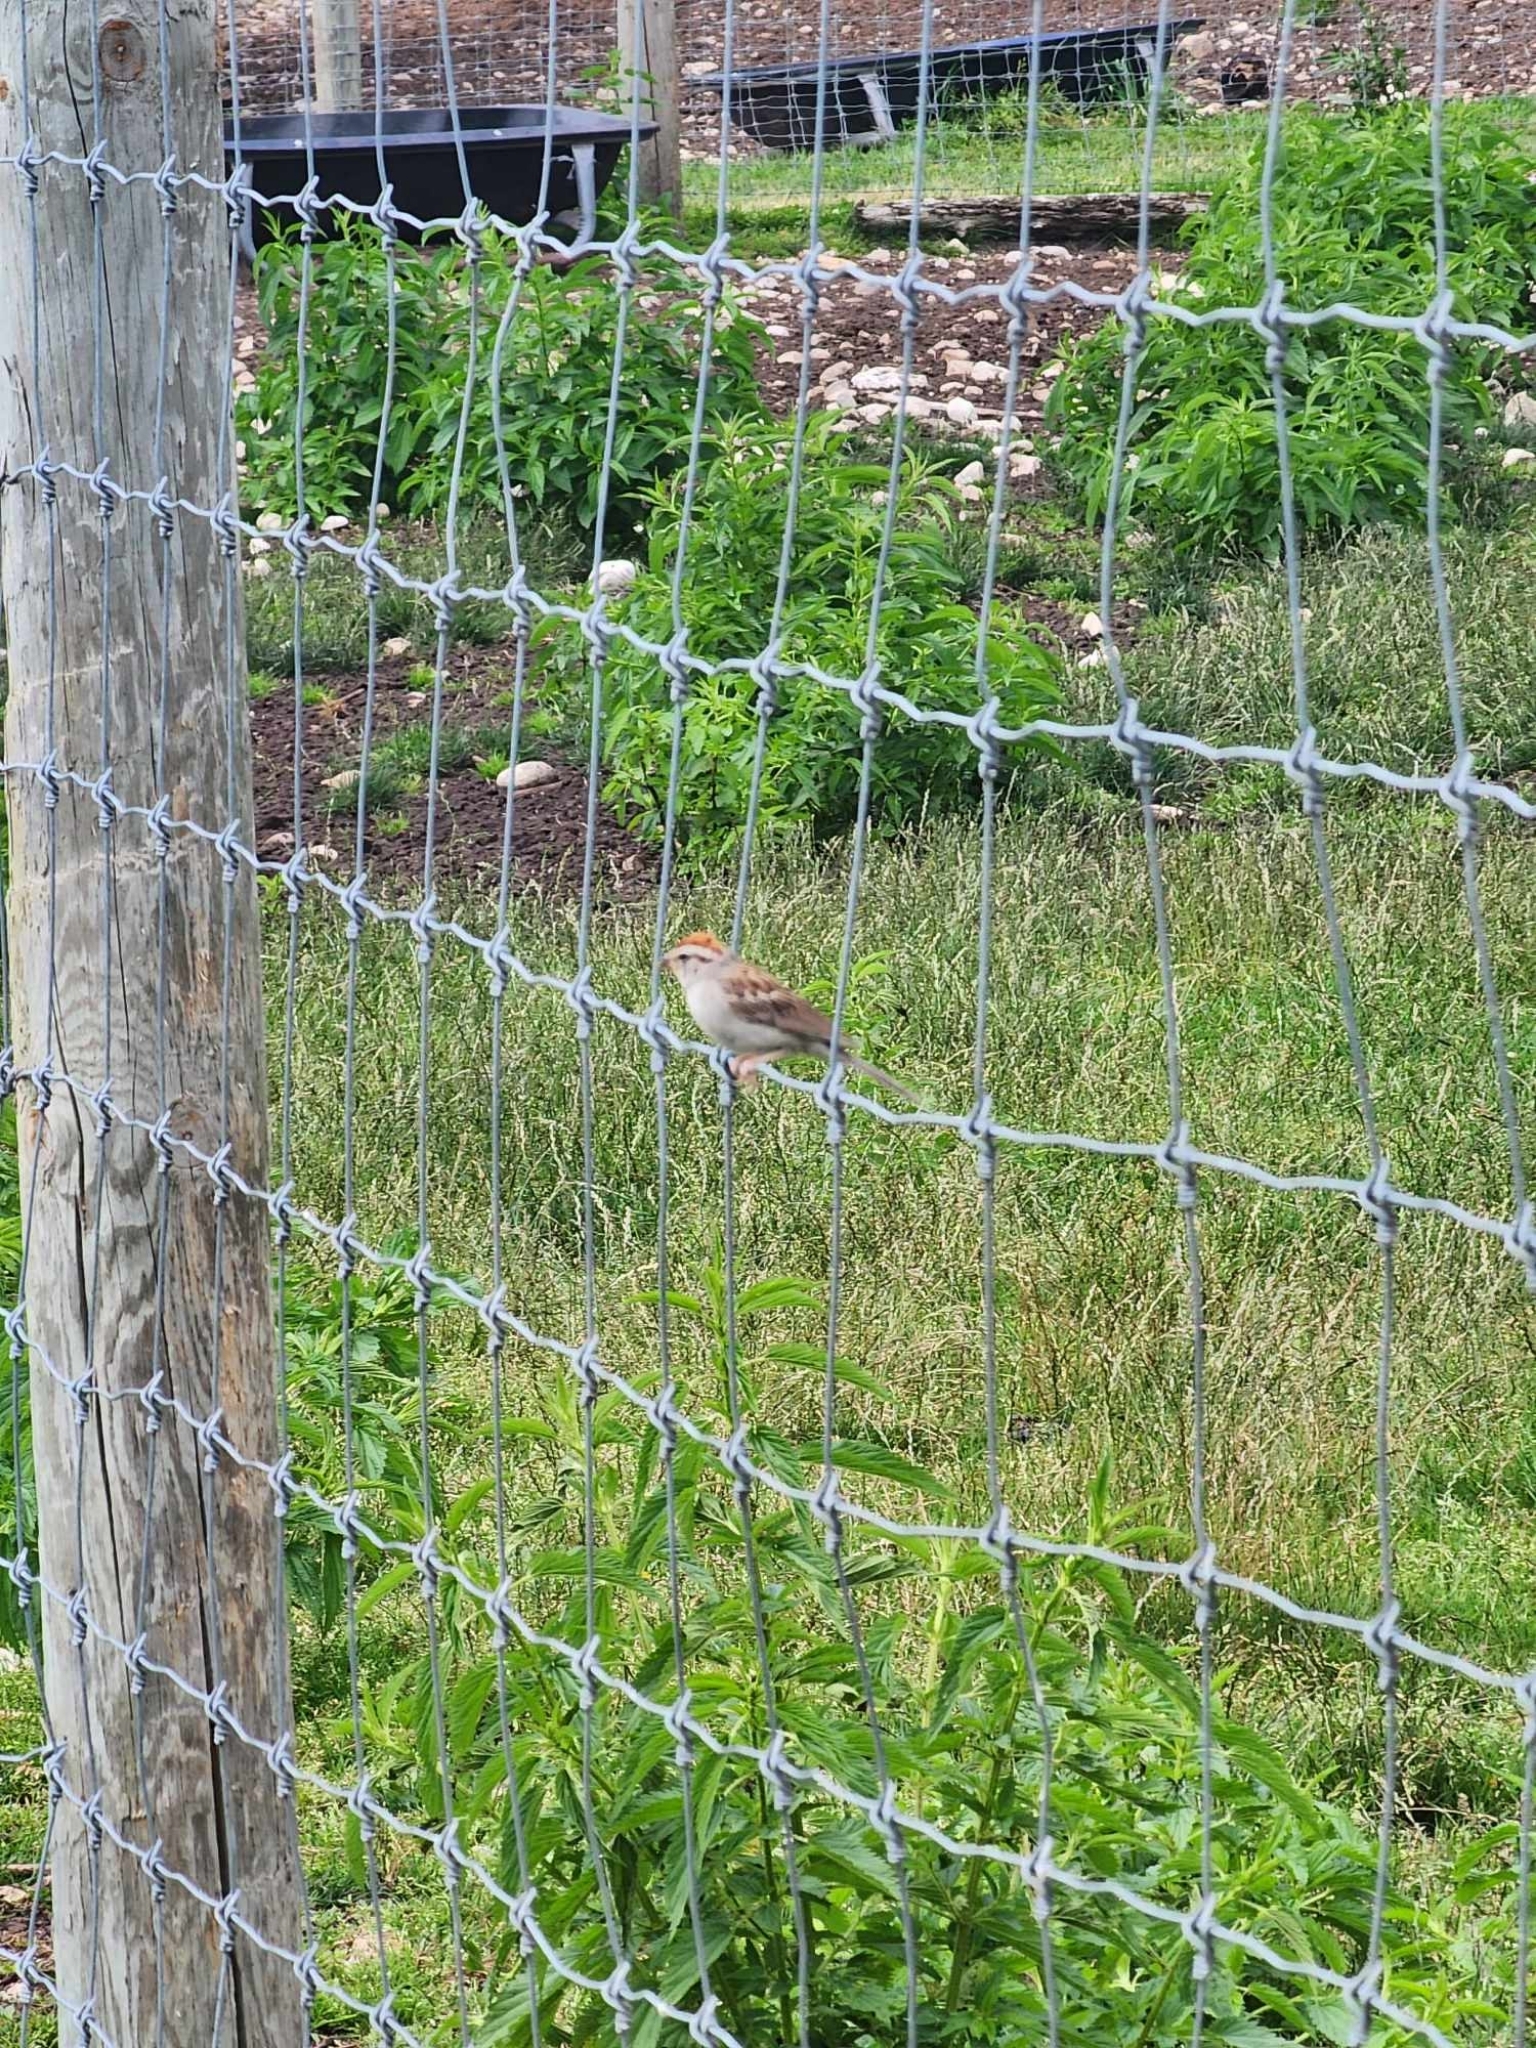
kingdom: Animalia
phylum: Chordata
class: Aves
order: Passeriformes
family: Passerellidae
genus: Spizella
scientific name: Spizella passerina
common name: Chipping sparrow
